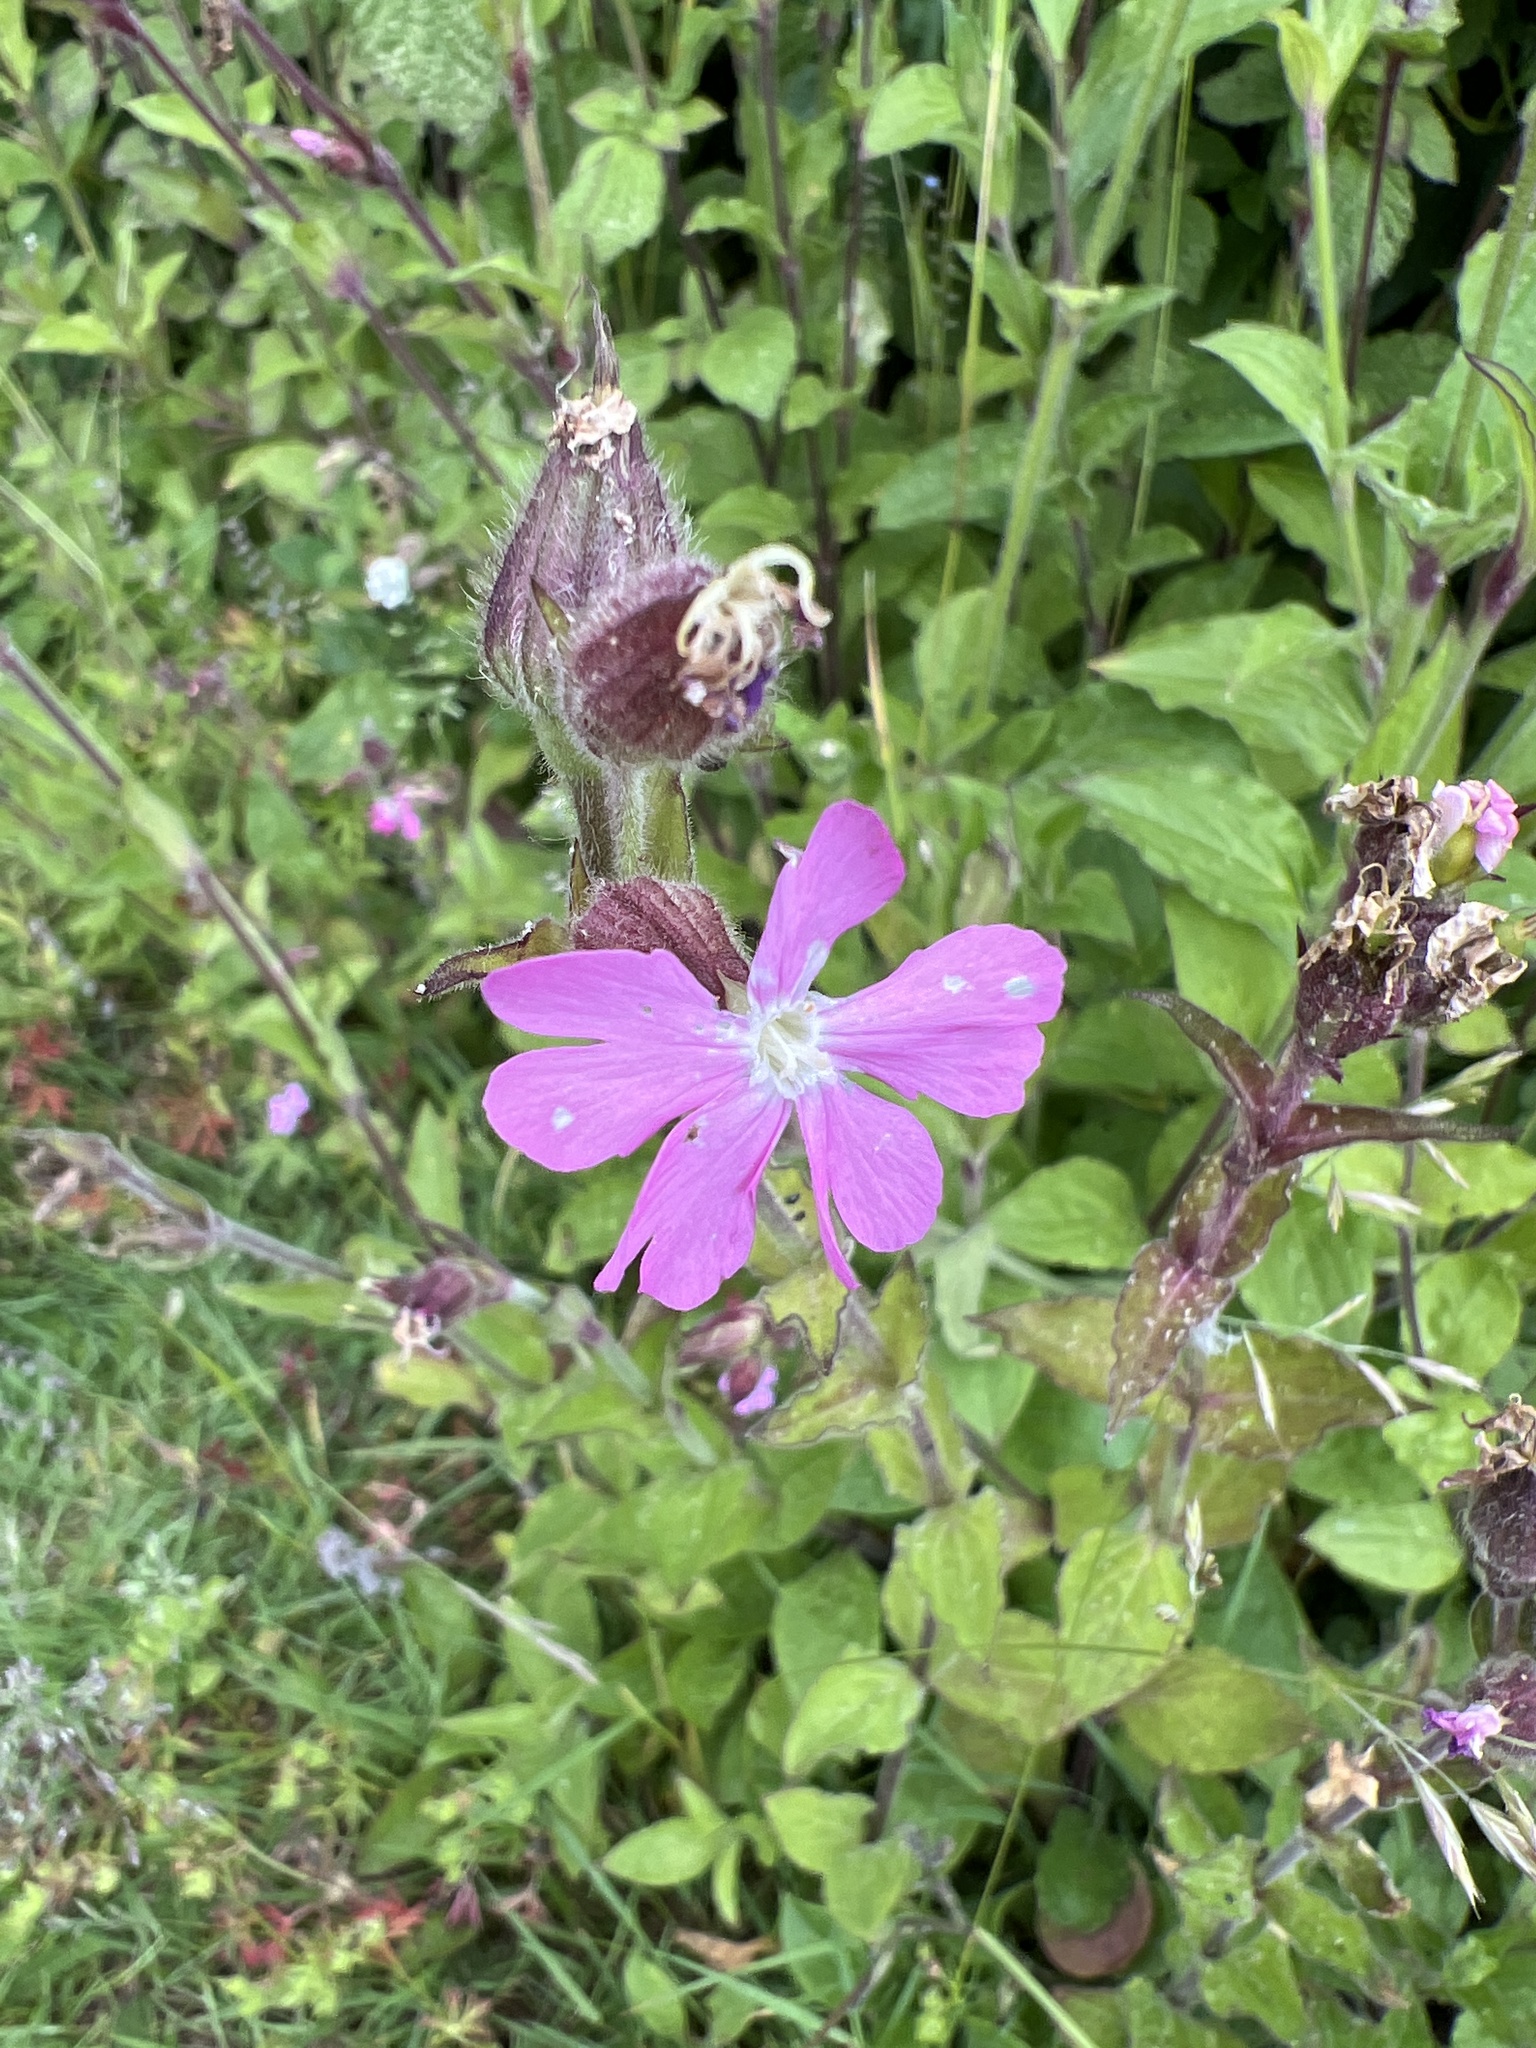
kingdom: Plantae
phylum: Tracheophyta
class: Magnoliopsida
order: Caryophyllales
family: Caryophyllaceae
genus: Silene
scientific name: Silene dioica
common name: Red campion
